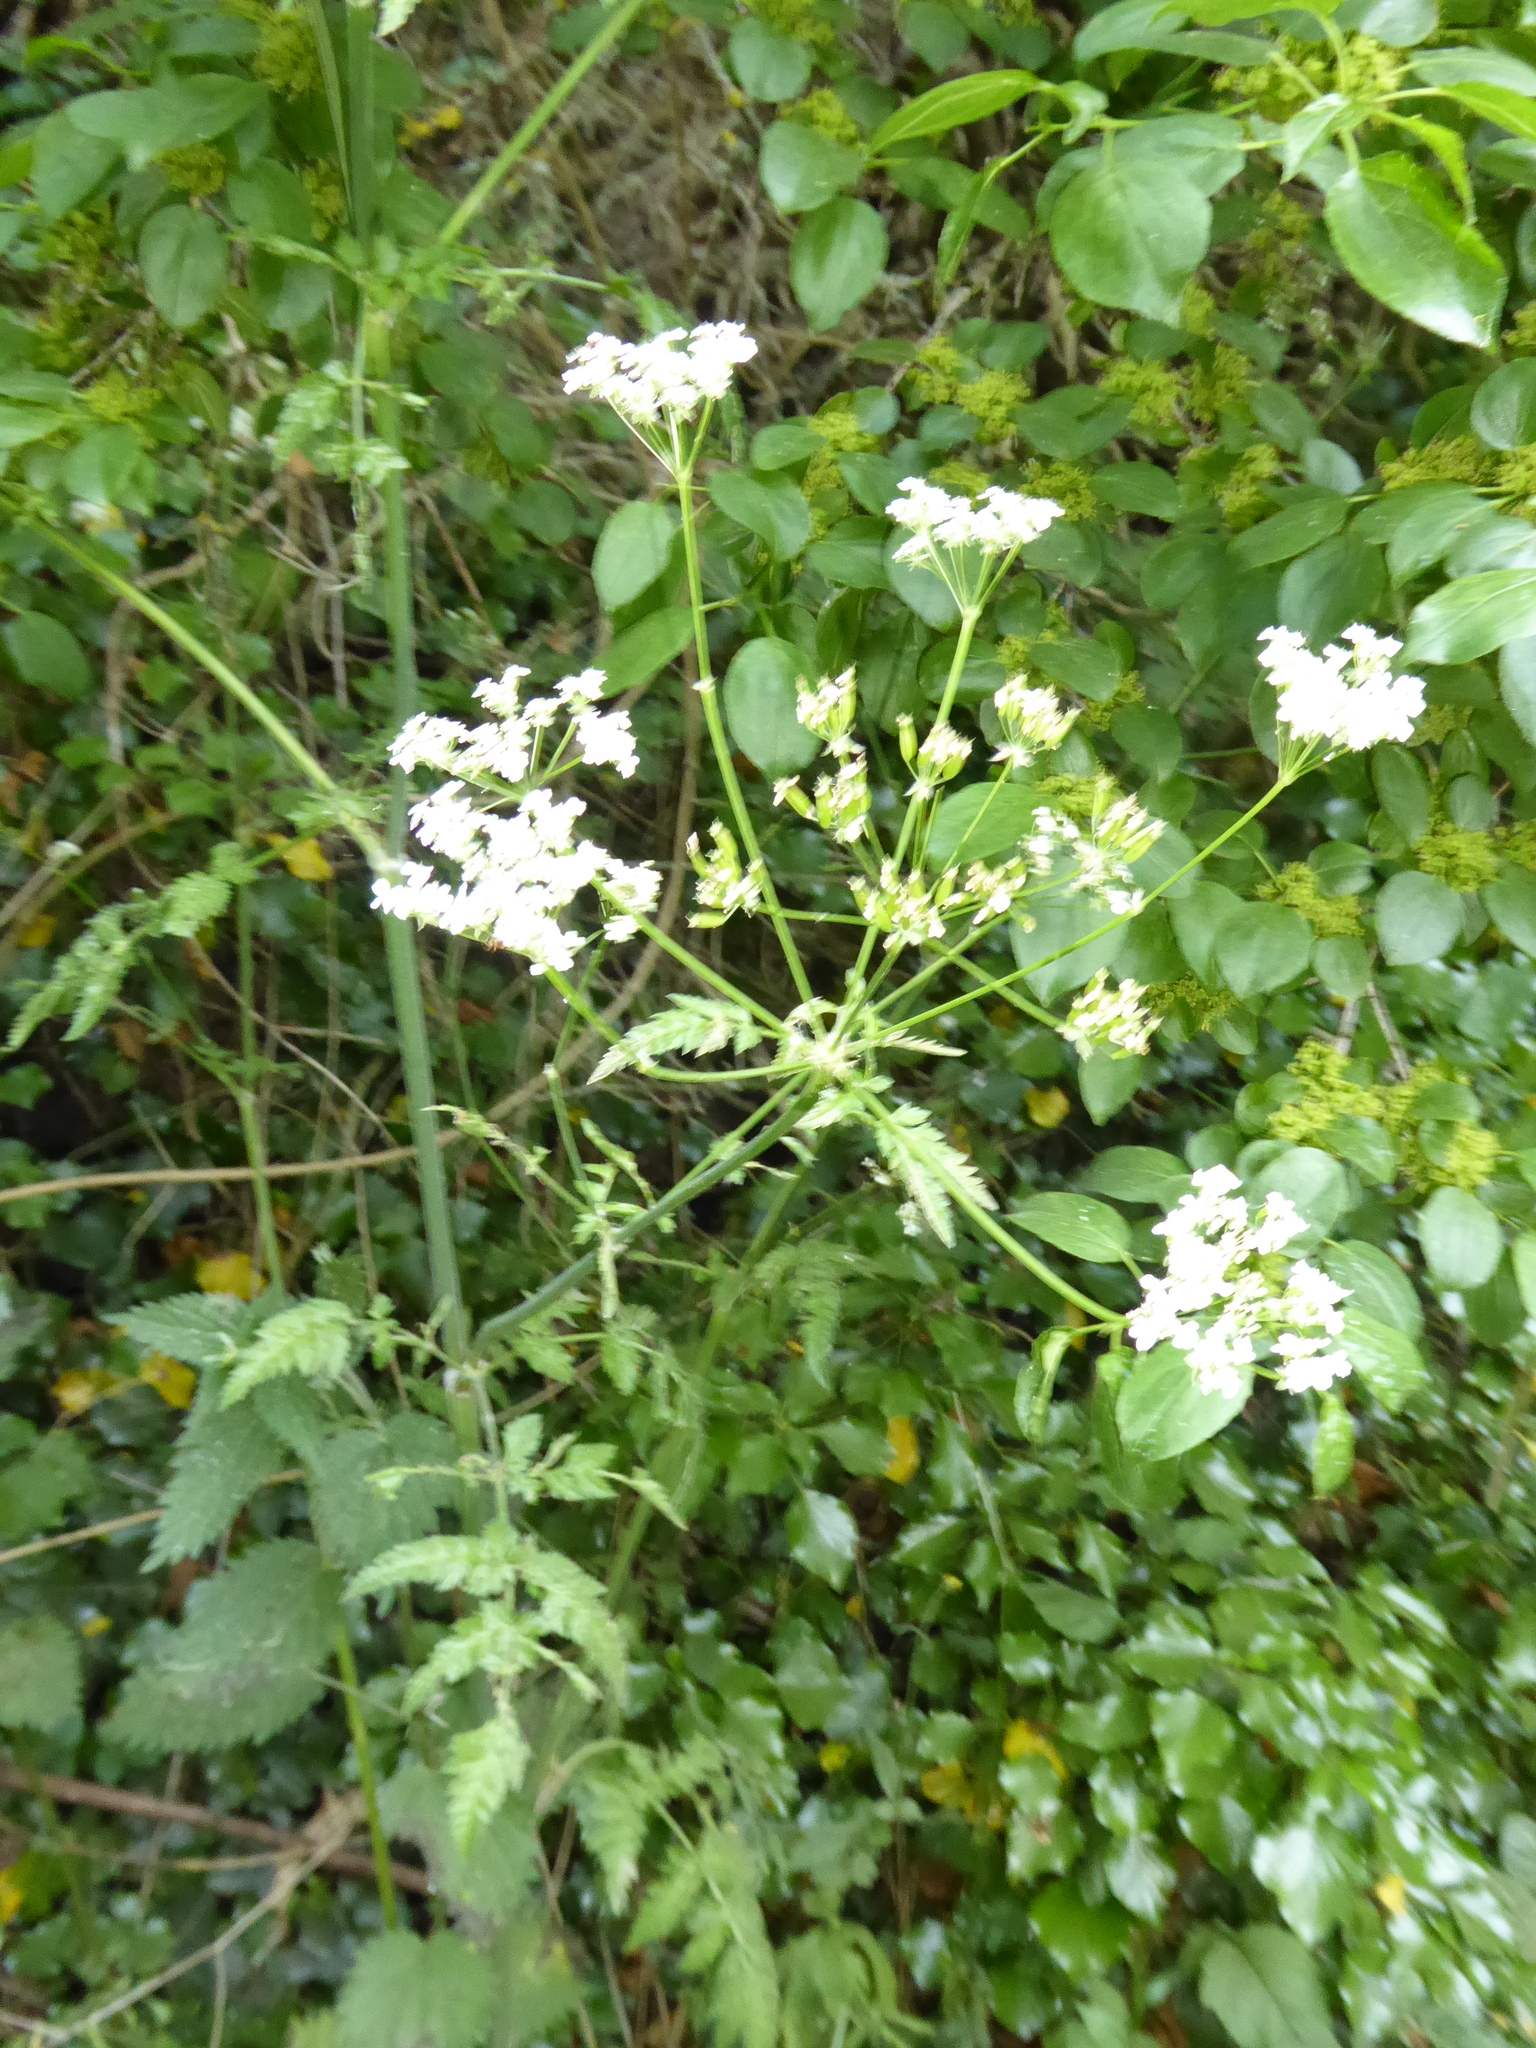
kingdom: Plantae
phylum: Tracheophyta
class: Magnoliopsida
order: Apiales
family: Apiaceae
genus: Anthriscus
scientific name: Anthriscus sylvestris
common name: Cow parsley
